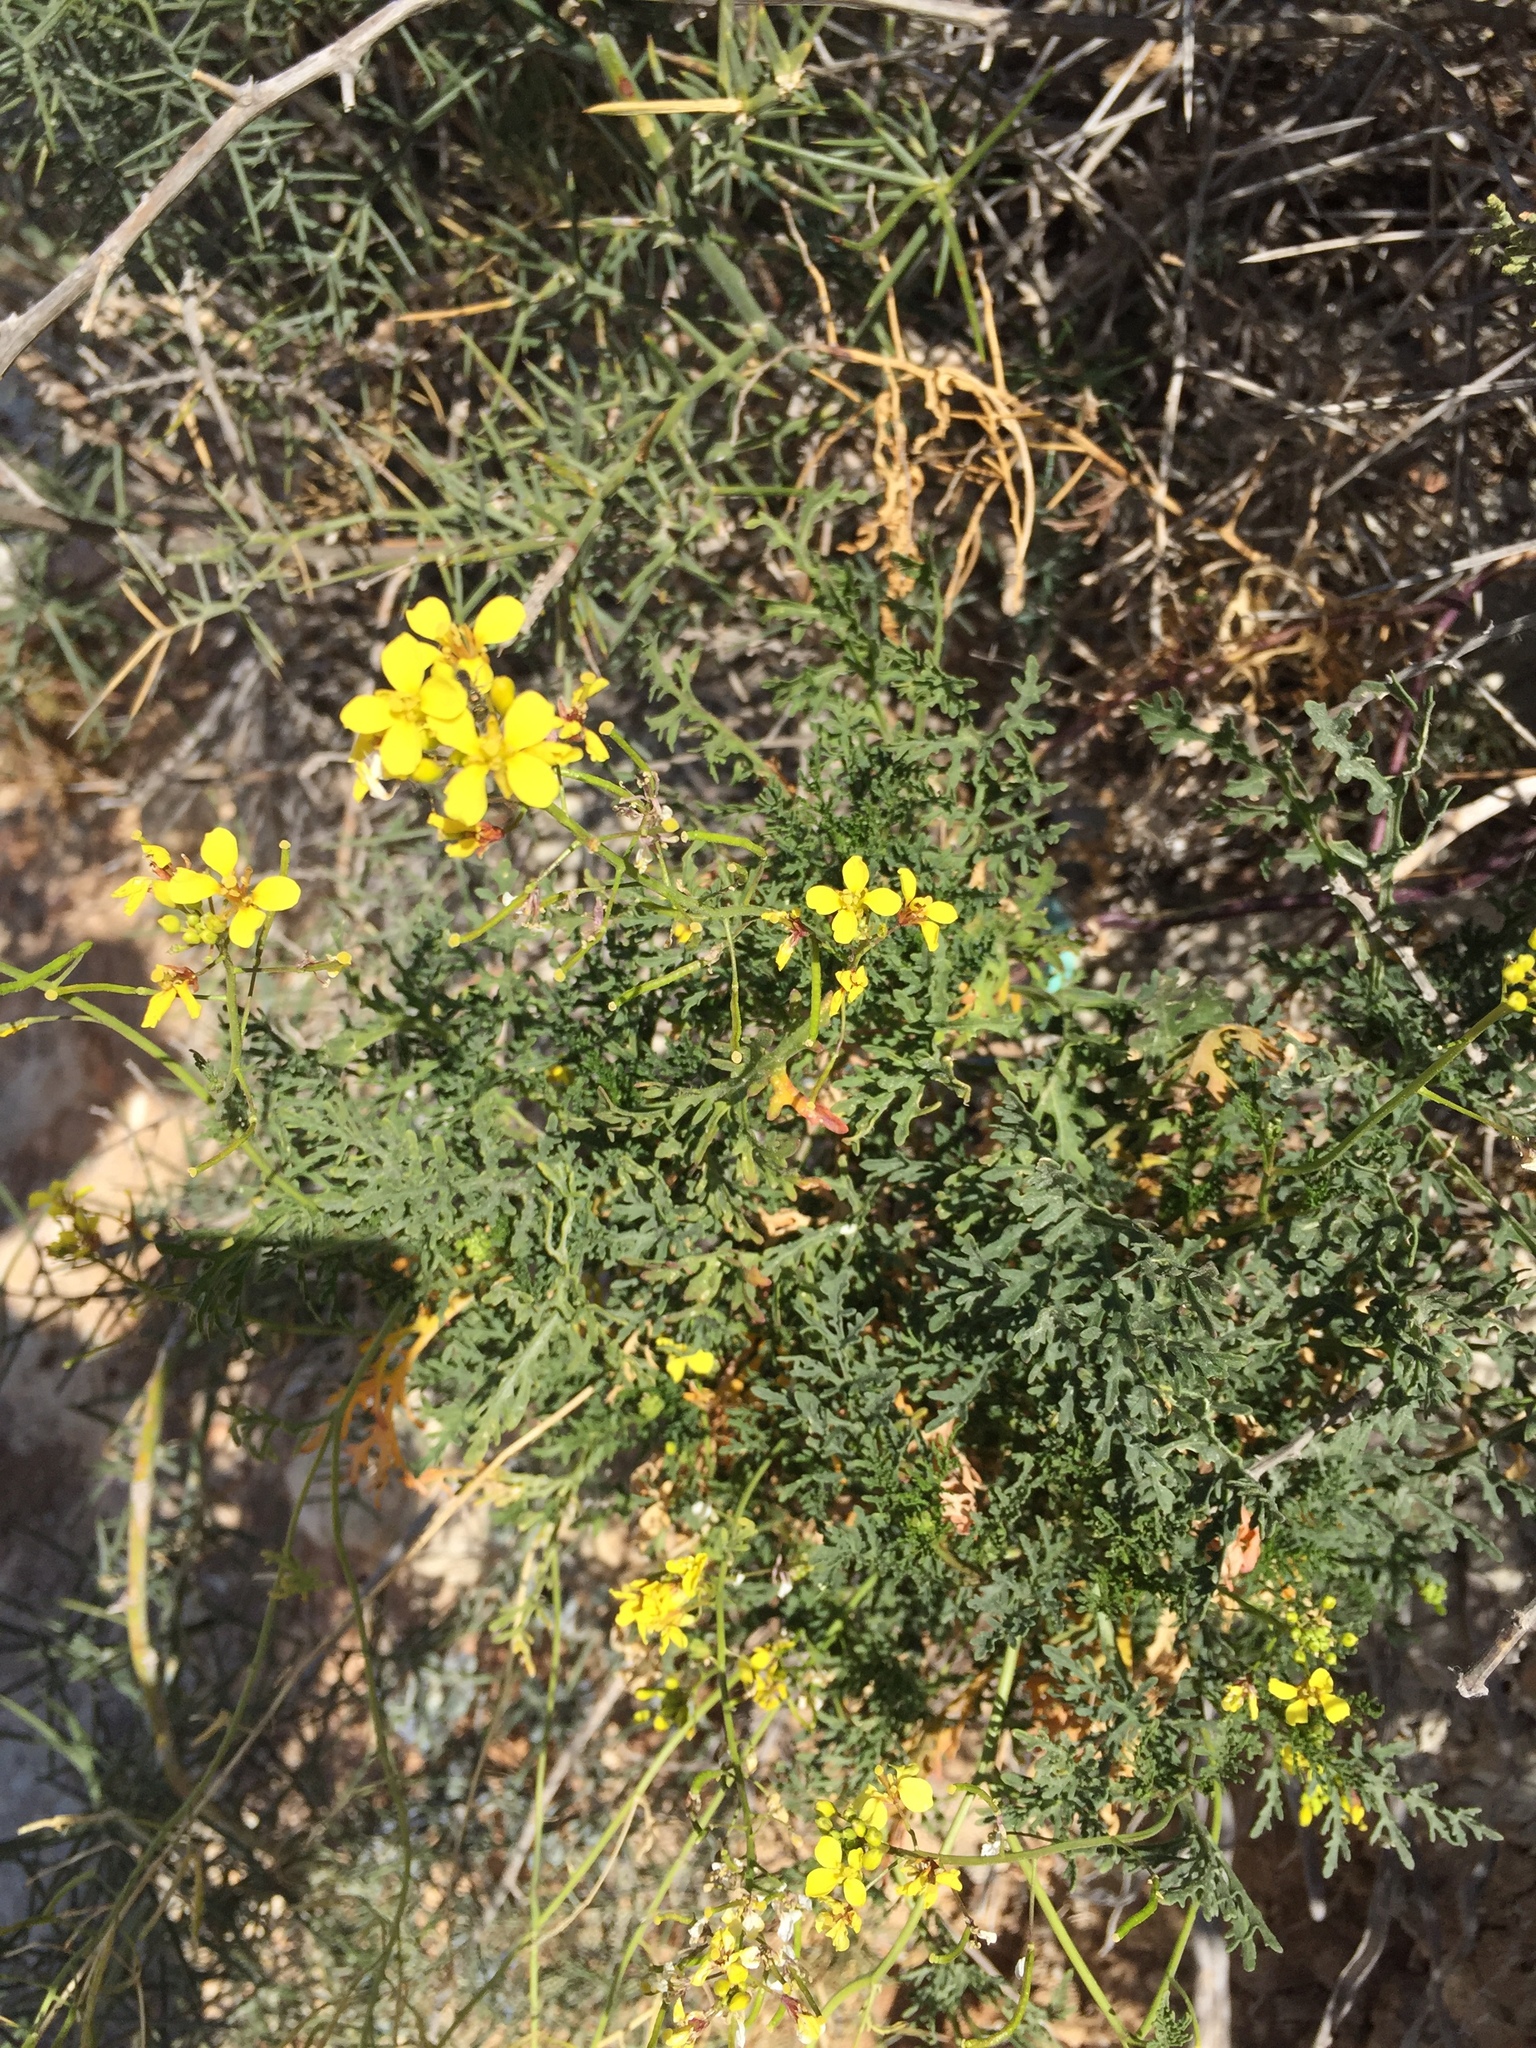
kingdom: Plantae
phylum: Tracheophyta
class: Magnoliopsida
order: Brassicales
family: Brassicaceae
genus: Diplotaxis
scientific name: Diplotaxis ibicensis
